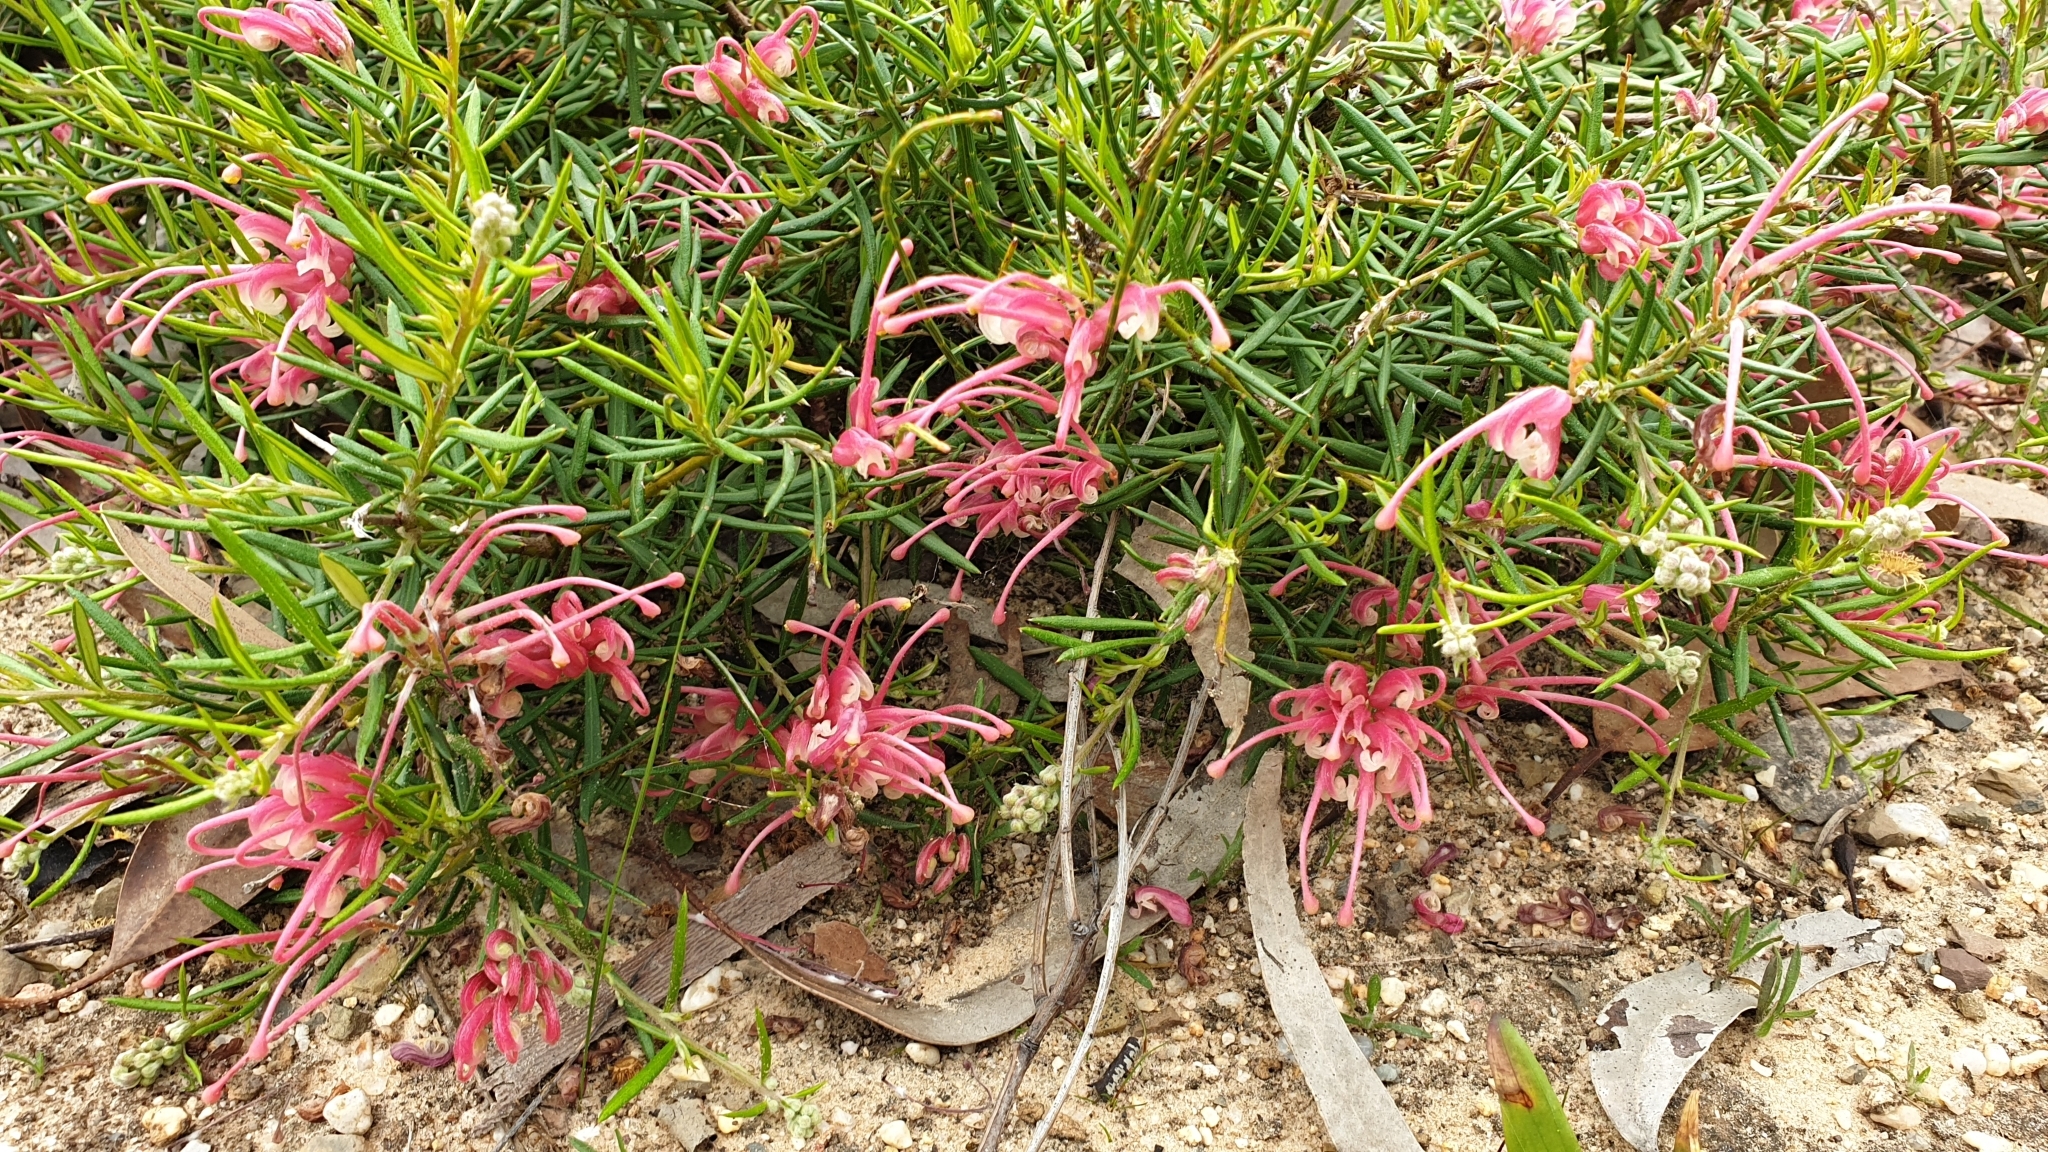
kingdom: Plantae
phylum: Tracheophyta
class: Magnoliopsida
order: Proteales
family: Proteaceae
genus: Grevillea
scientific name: Grevillea lavandulacea
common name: Lavender grevillea
